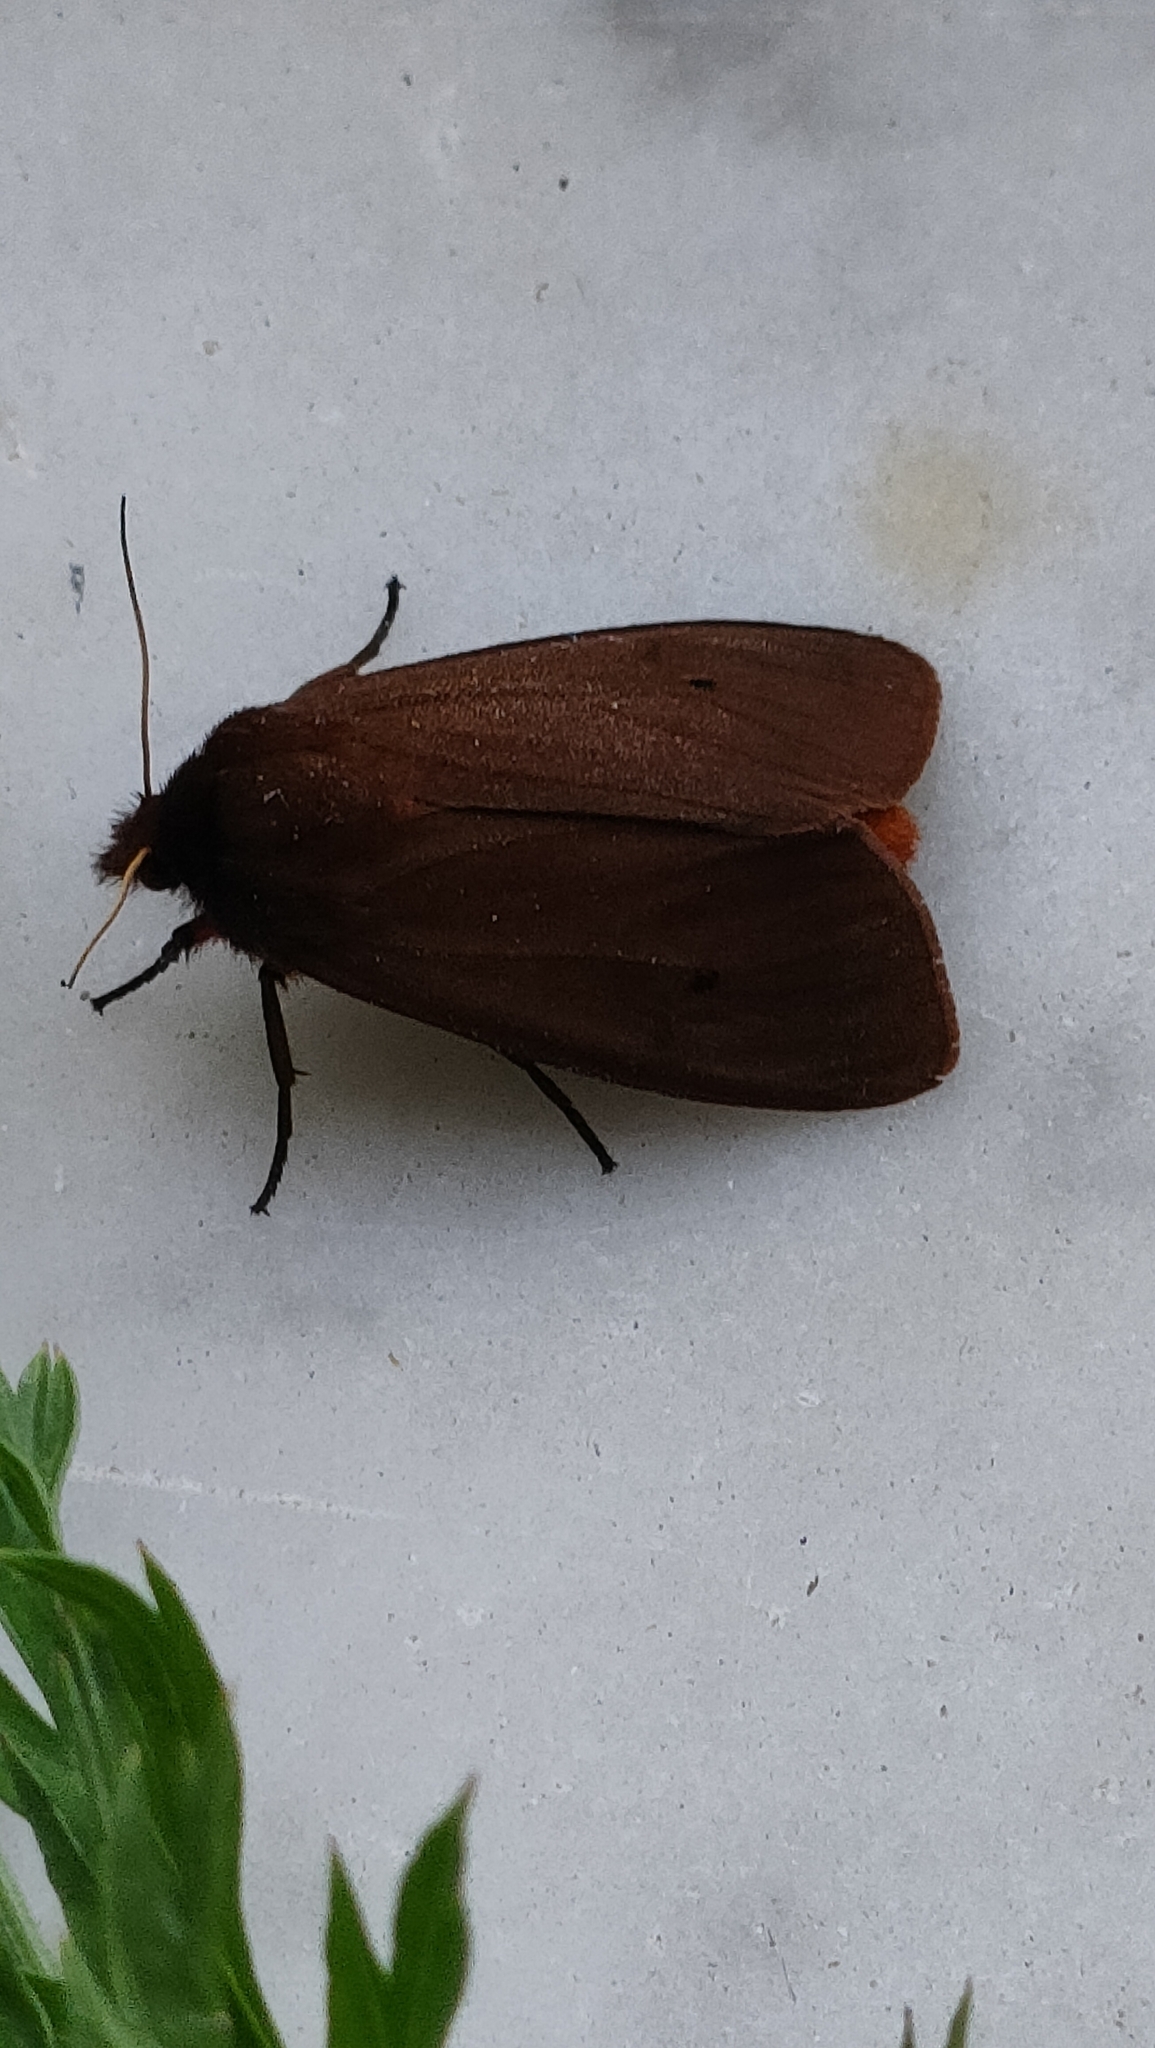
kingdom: Animalia
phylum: Arthropoda
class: Insecta
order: Lepidoptera
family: Erebidae
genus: Phragmatobia
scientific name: Phragmatobia fuliginosa
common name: Ruby tiger
